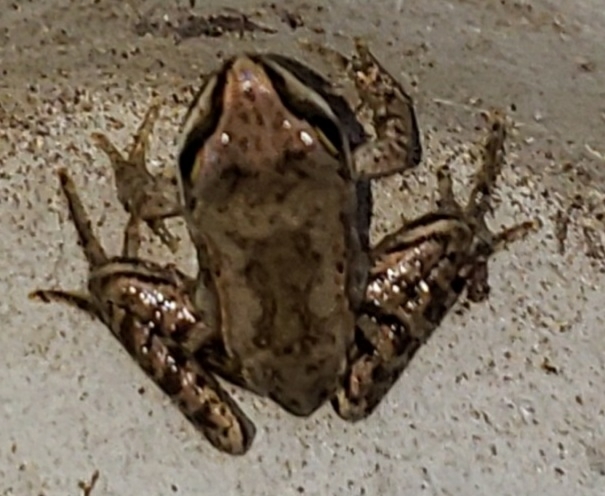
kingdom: Animalia
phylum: Chordata
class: Amphibia
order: Anura
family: Ranidae
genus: Lithobates
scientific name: Lithobates sylvaticus
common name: Wood frog
